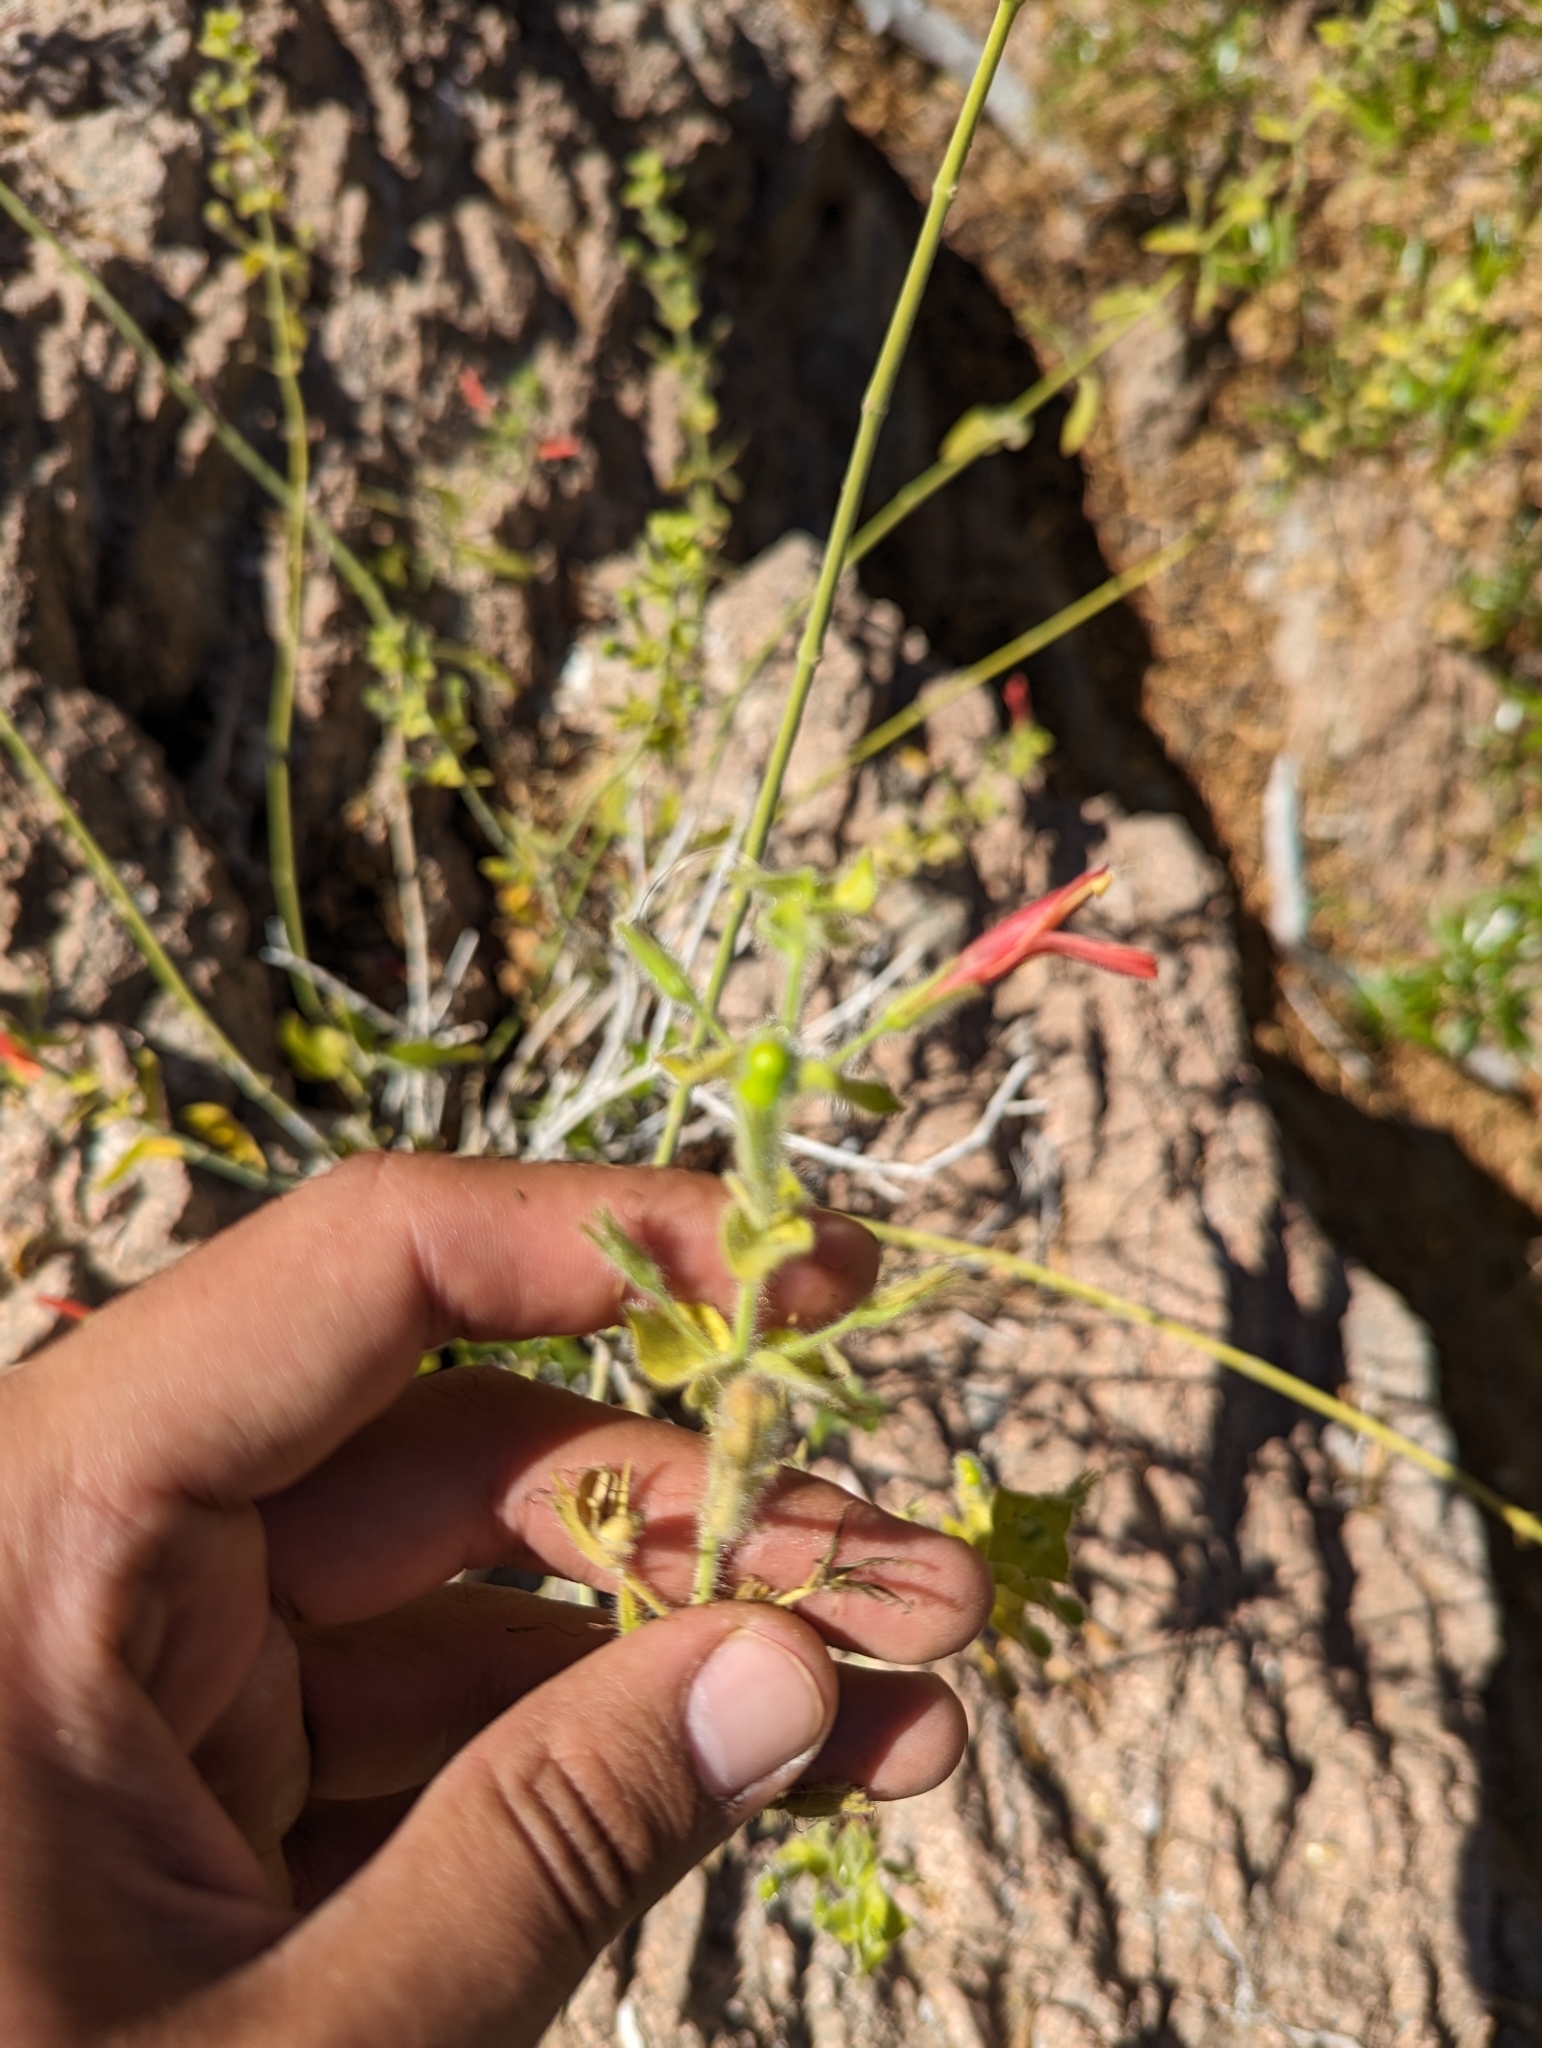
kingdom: Plantae
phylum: Tracheophyta
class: Magnoliopsida
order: Lamiales
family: Acanthaceae
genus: Justicia
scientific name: Justicia purpusii
